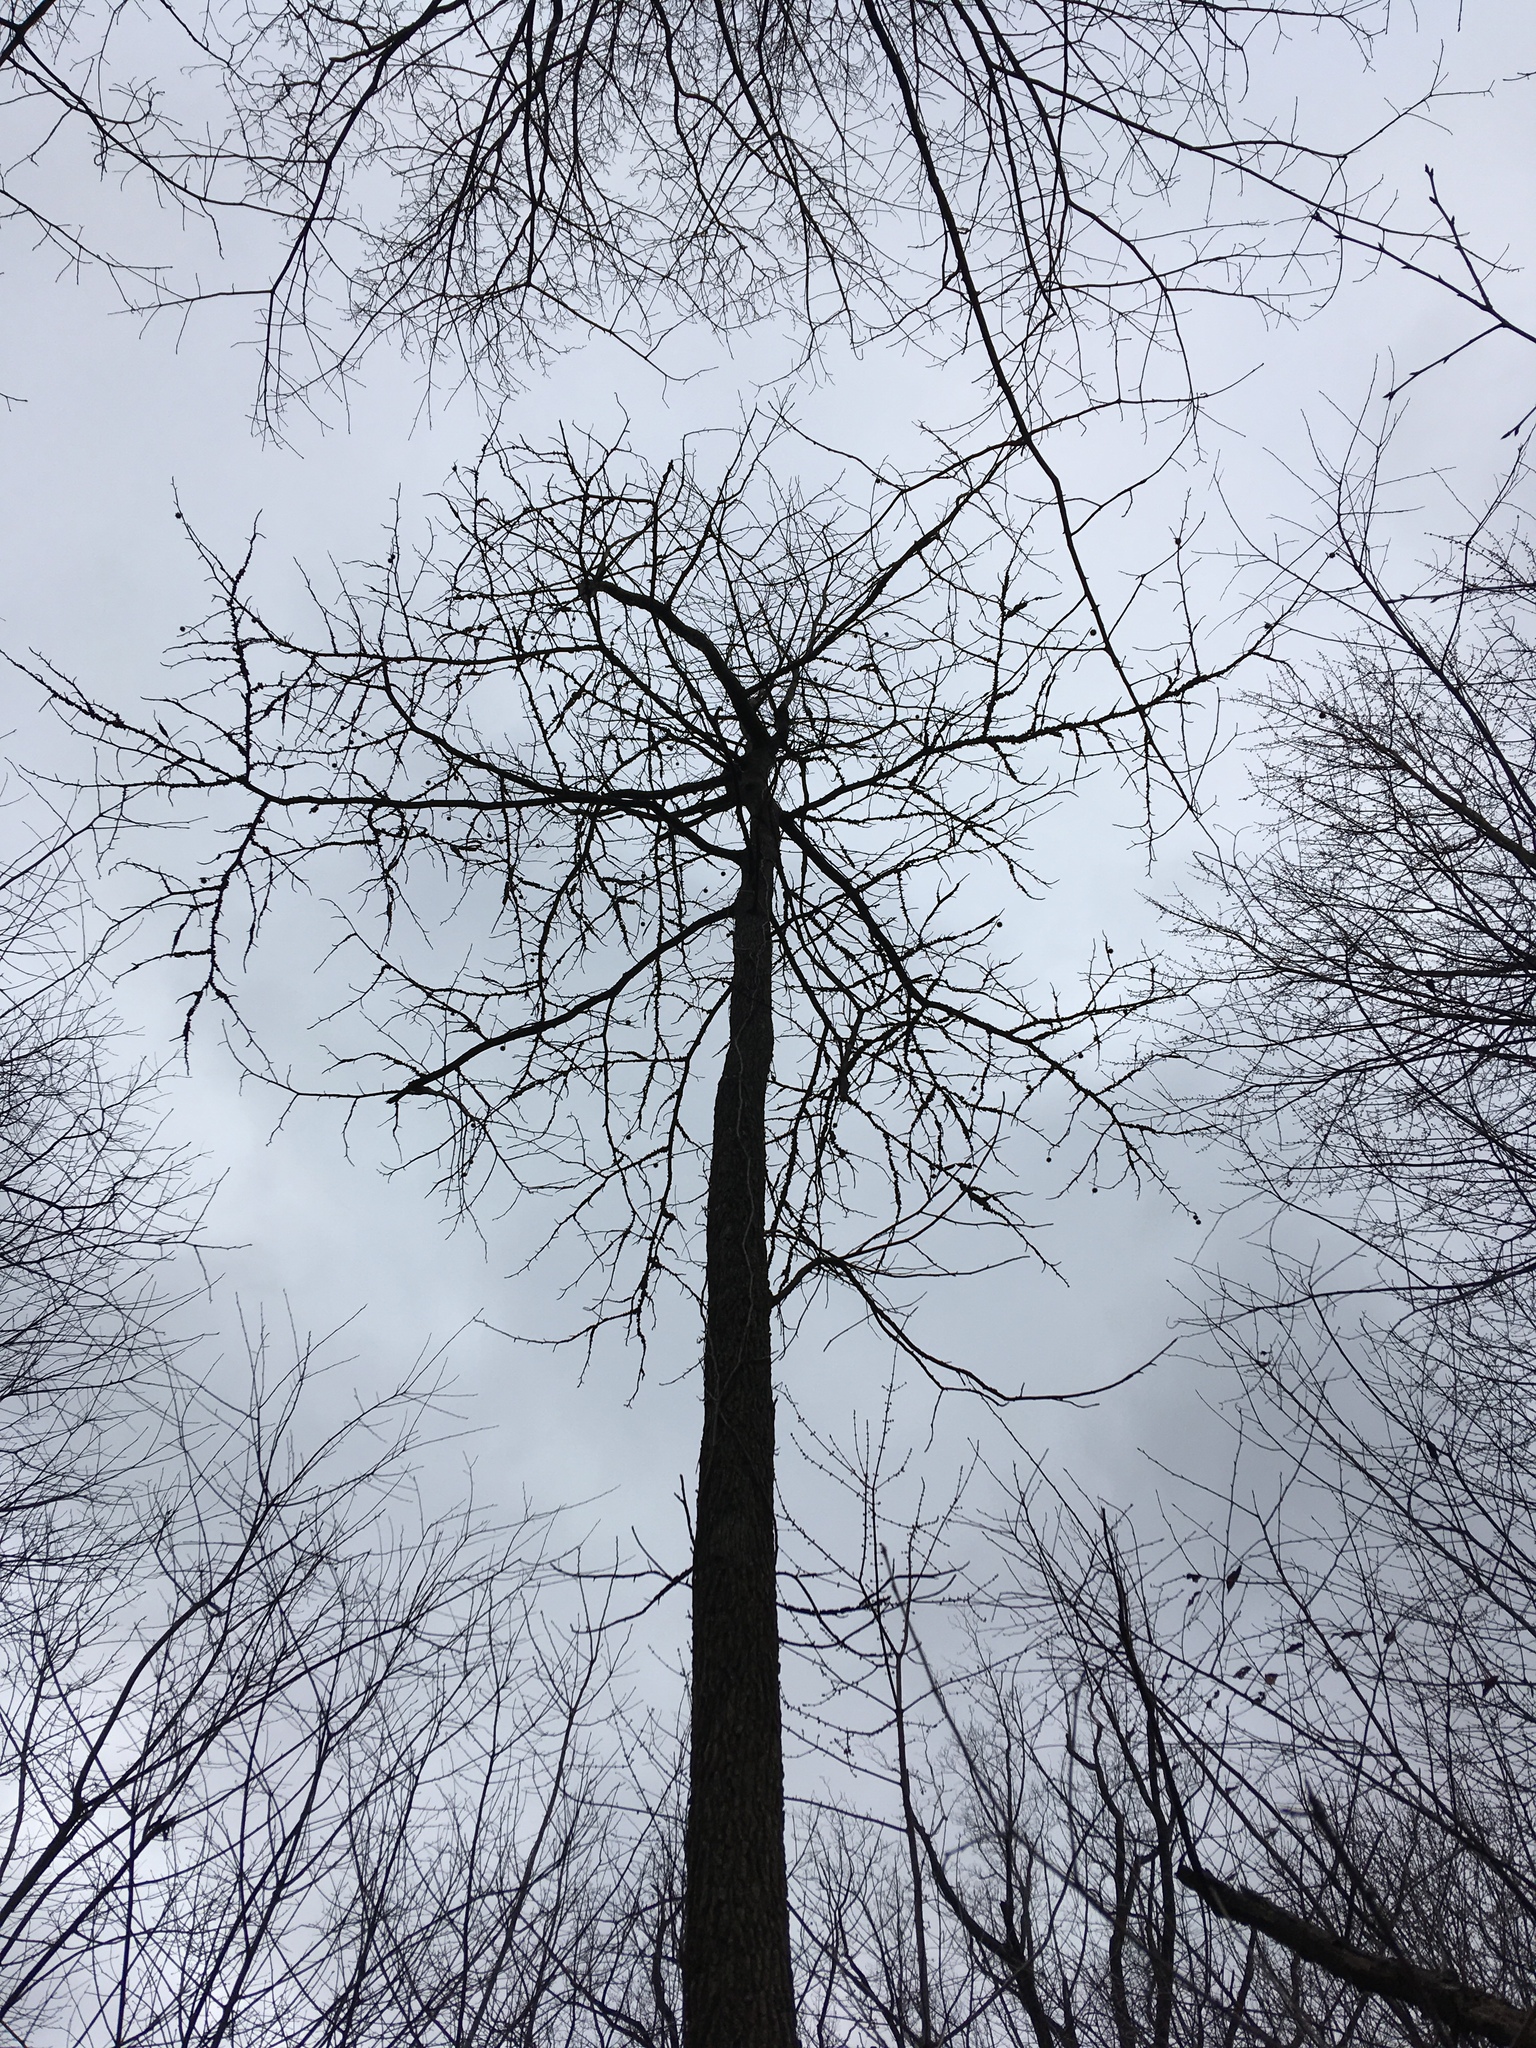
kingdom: Plantae
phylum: Tracheophyta
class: Magnoliopsida
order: Saxifragales
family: Altingiaceae
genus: Liquidambar
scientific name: Liquidambar styraciflua
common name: Sweet gum
